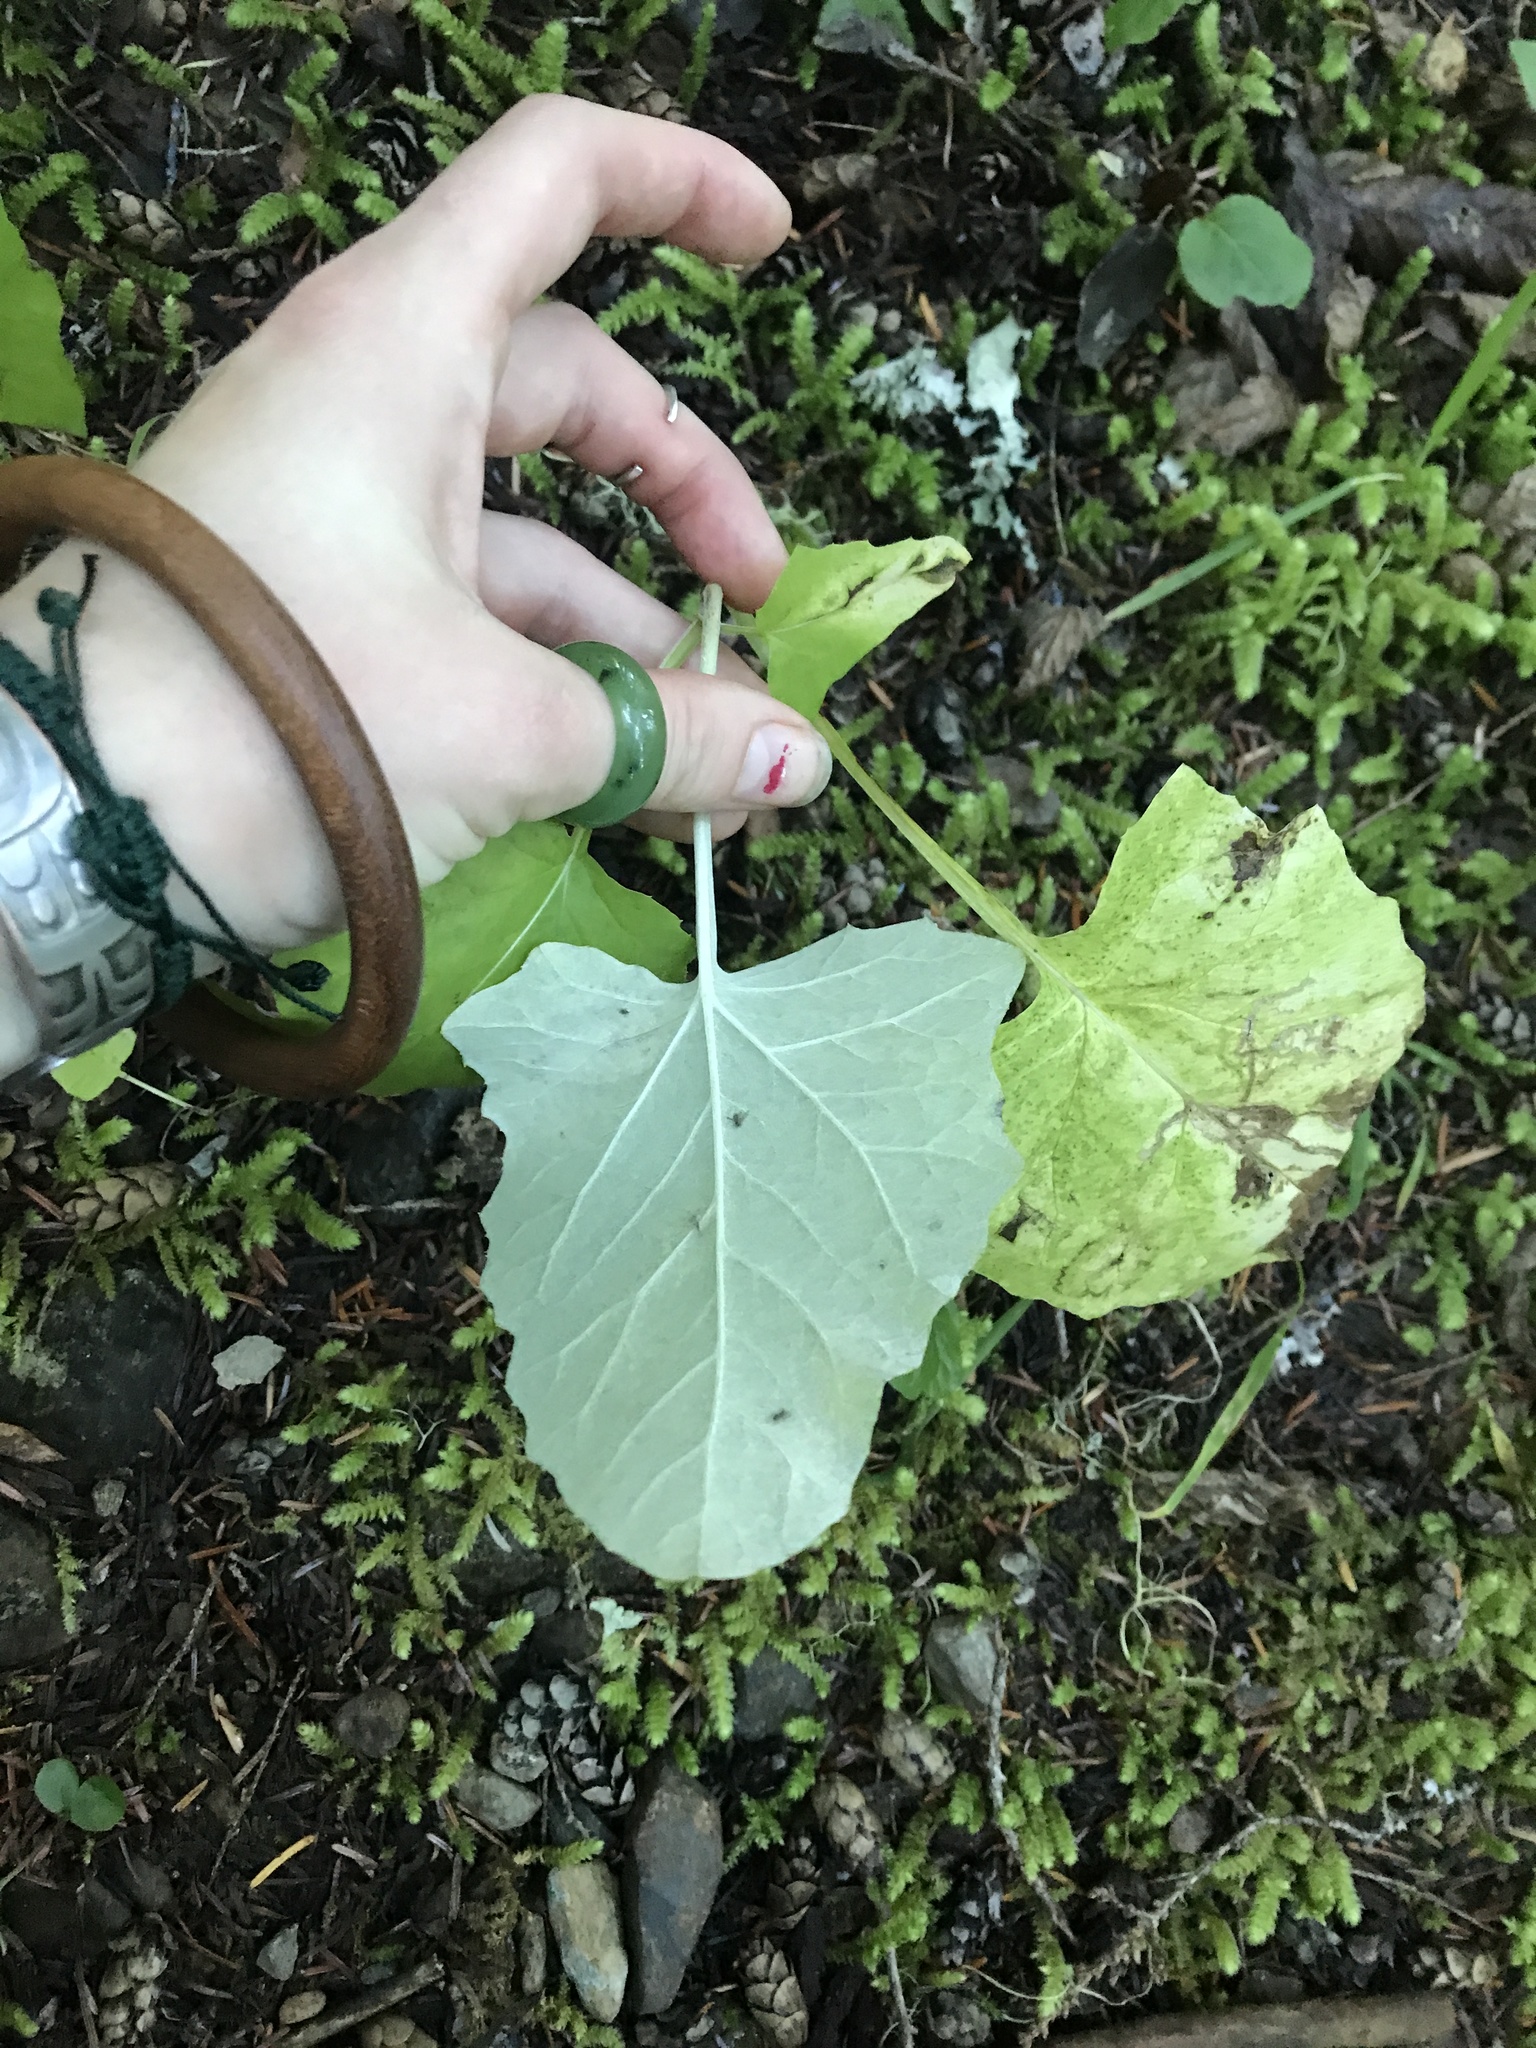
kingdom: Plantae
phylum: Tracheophyta
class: Magnoliopsida
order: Asterales
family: Asteraceae
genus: Adenocaulon
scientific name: Adenocaulon bicolor
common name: Trailplant
